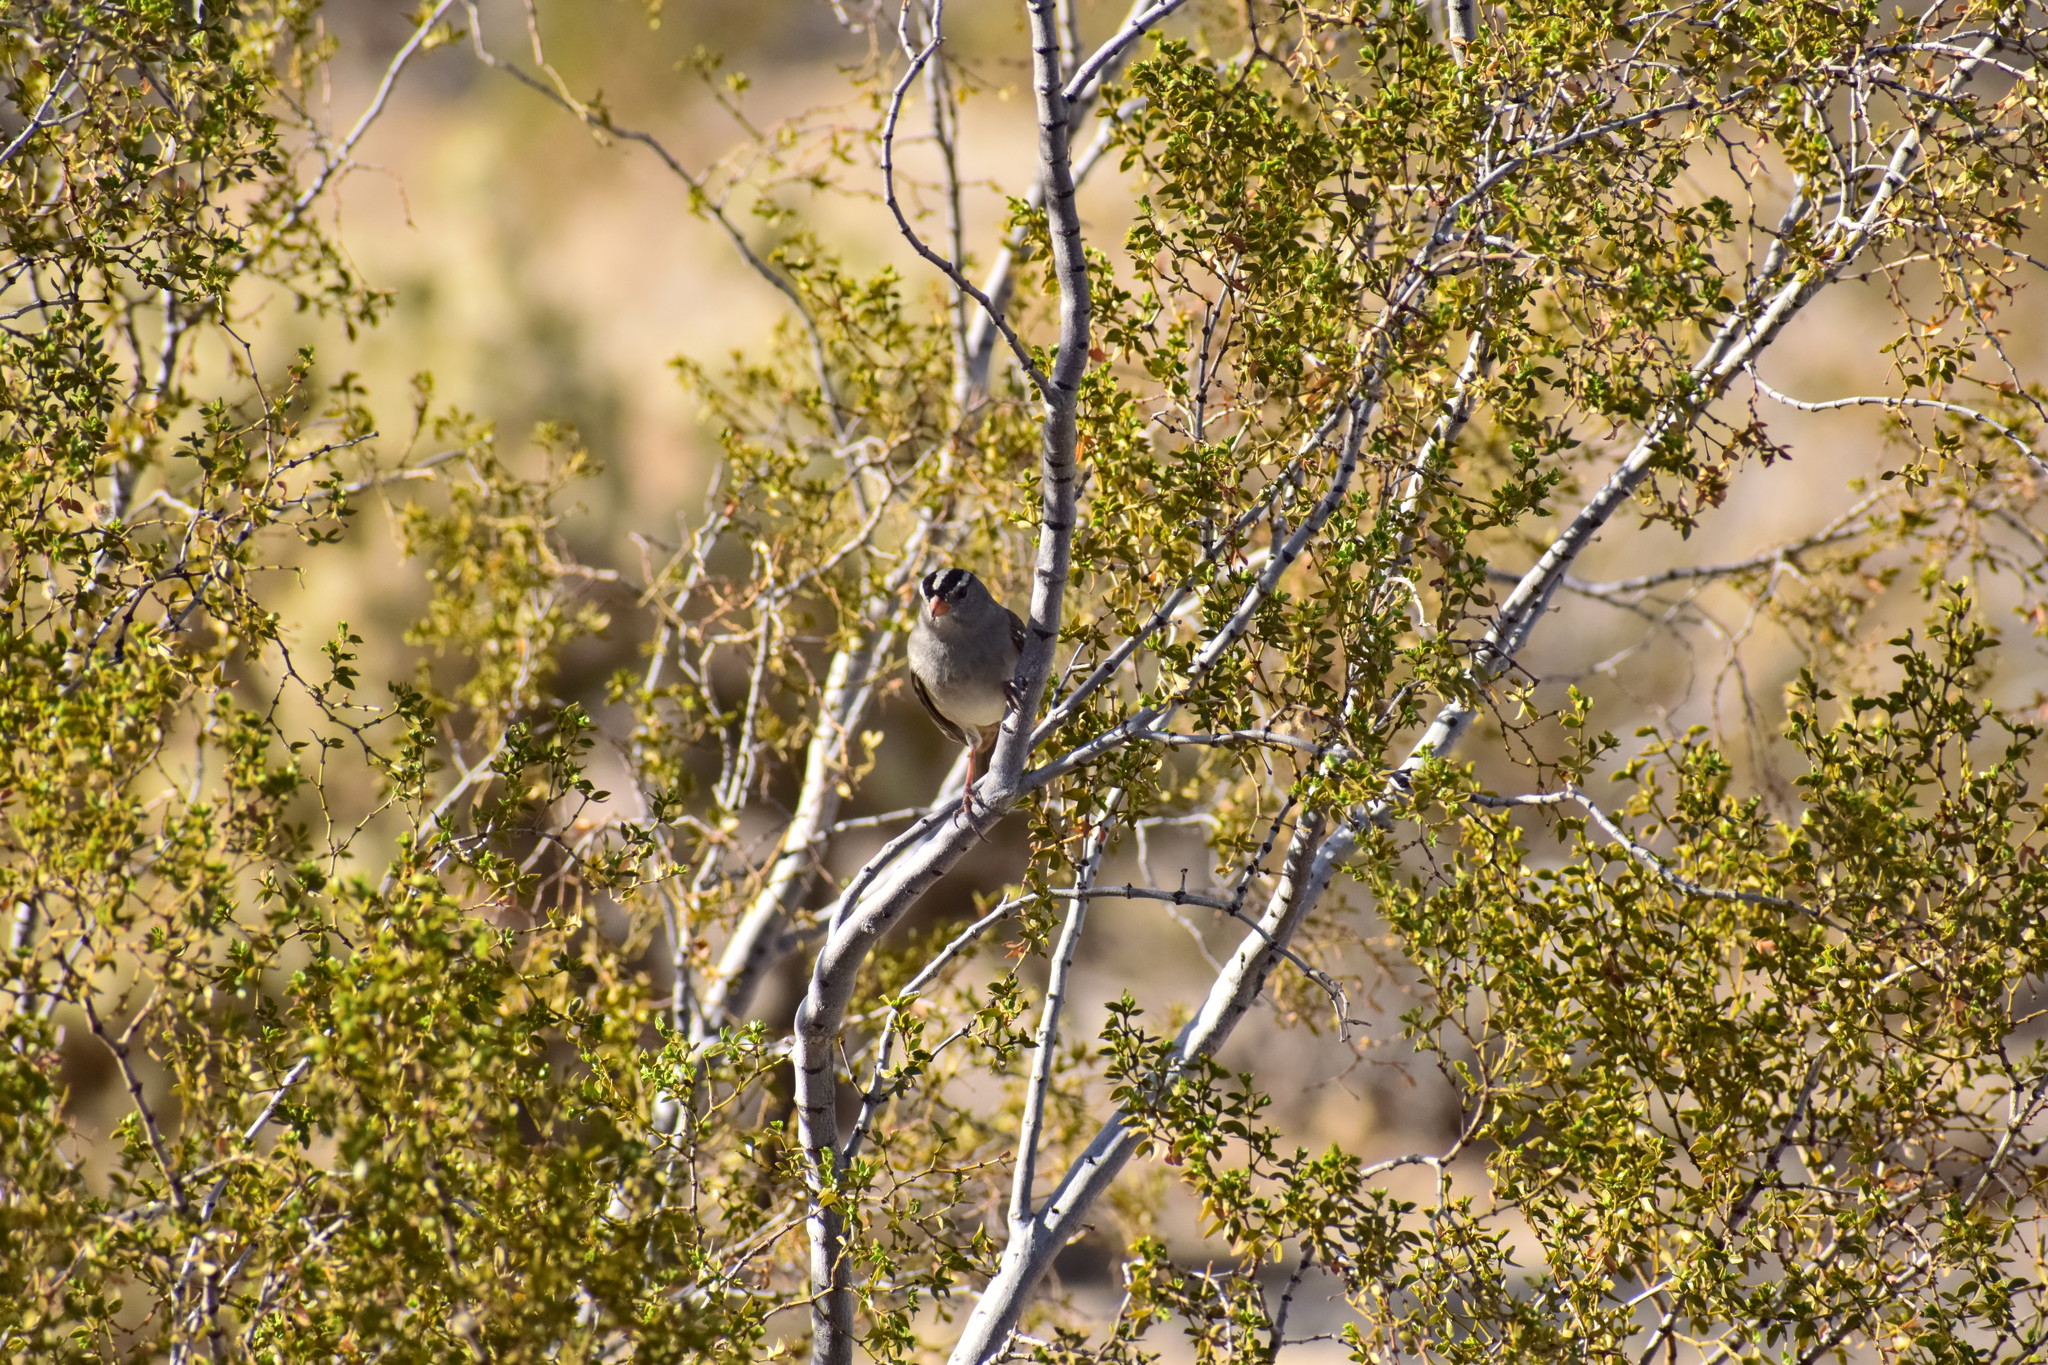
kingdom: Animalia
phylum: Chordata
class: Aves
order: Passeriformes
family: Passerellidae
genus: Zonotrichia
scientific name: Zonotrichia leucophrys
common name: White-crowned sparrow
